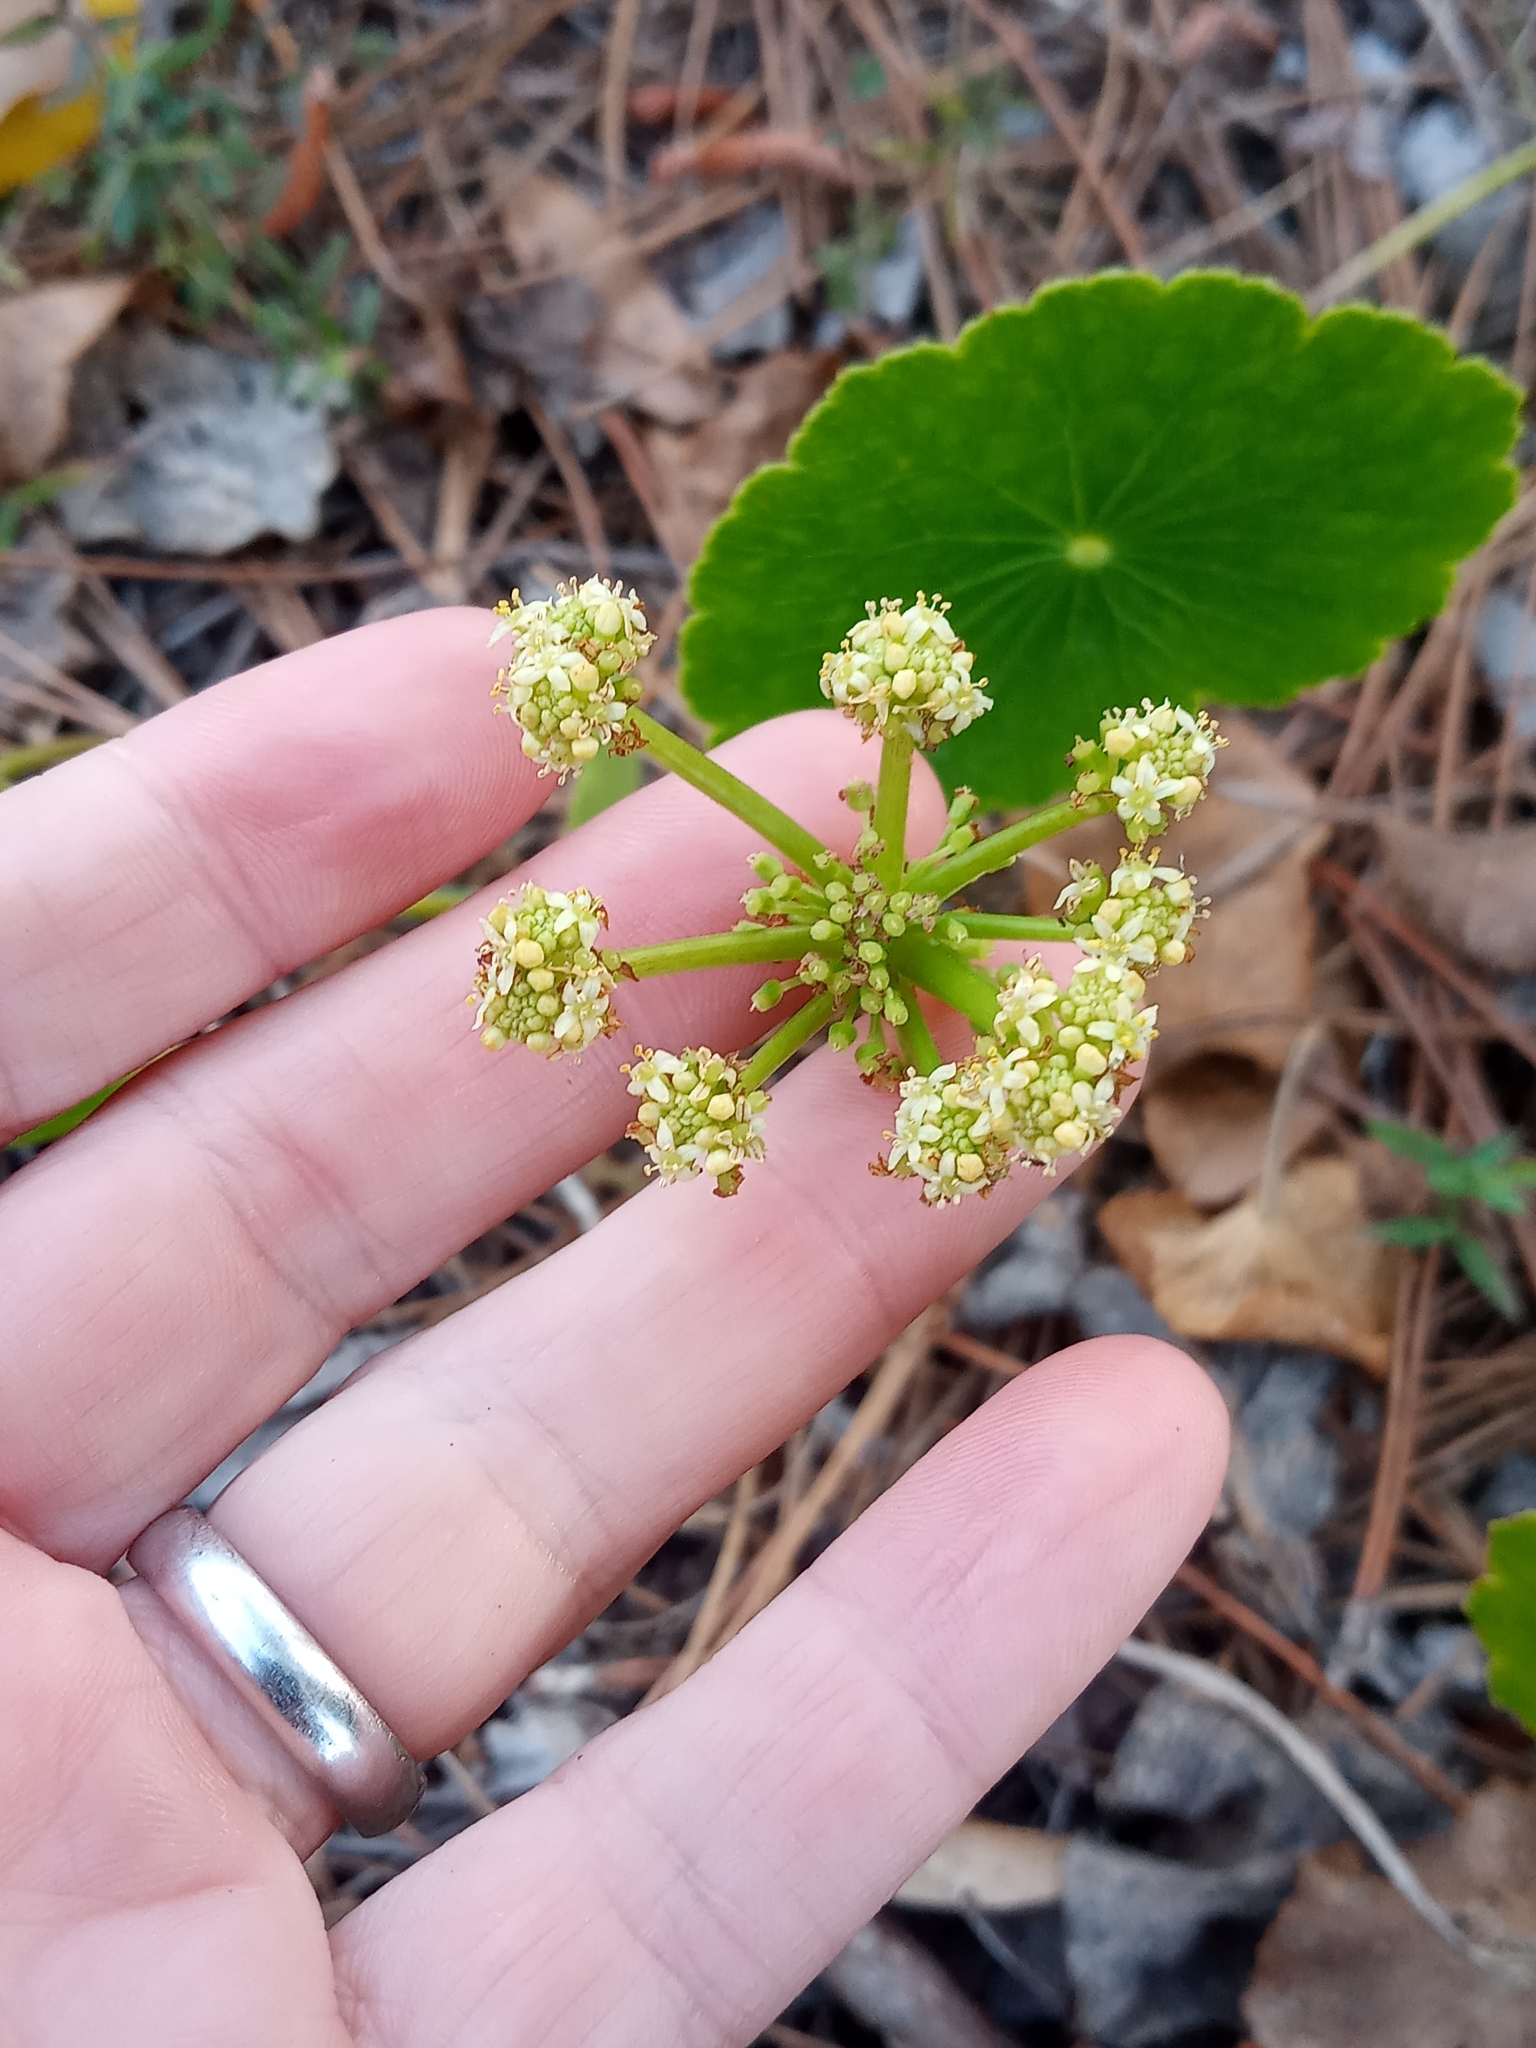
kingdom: Plantae
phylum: Tracheophyta
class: Magnoliopsida
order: Apiales
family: Araliaceae
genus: Hydrocotyle
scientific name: Hydrocotyle bonariensis
